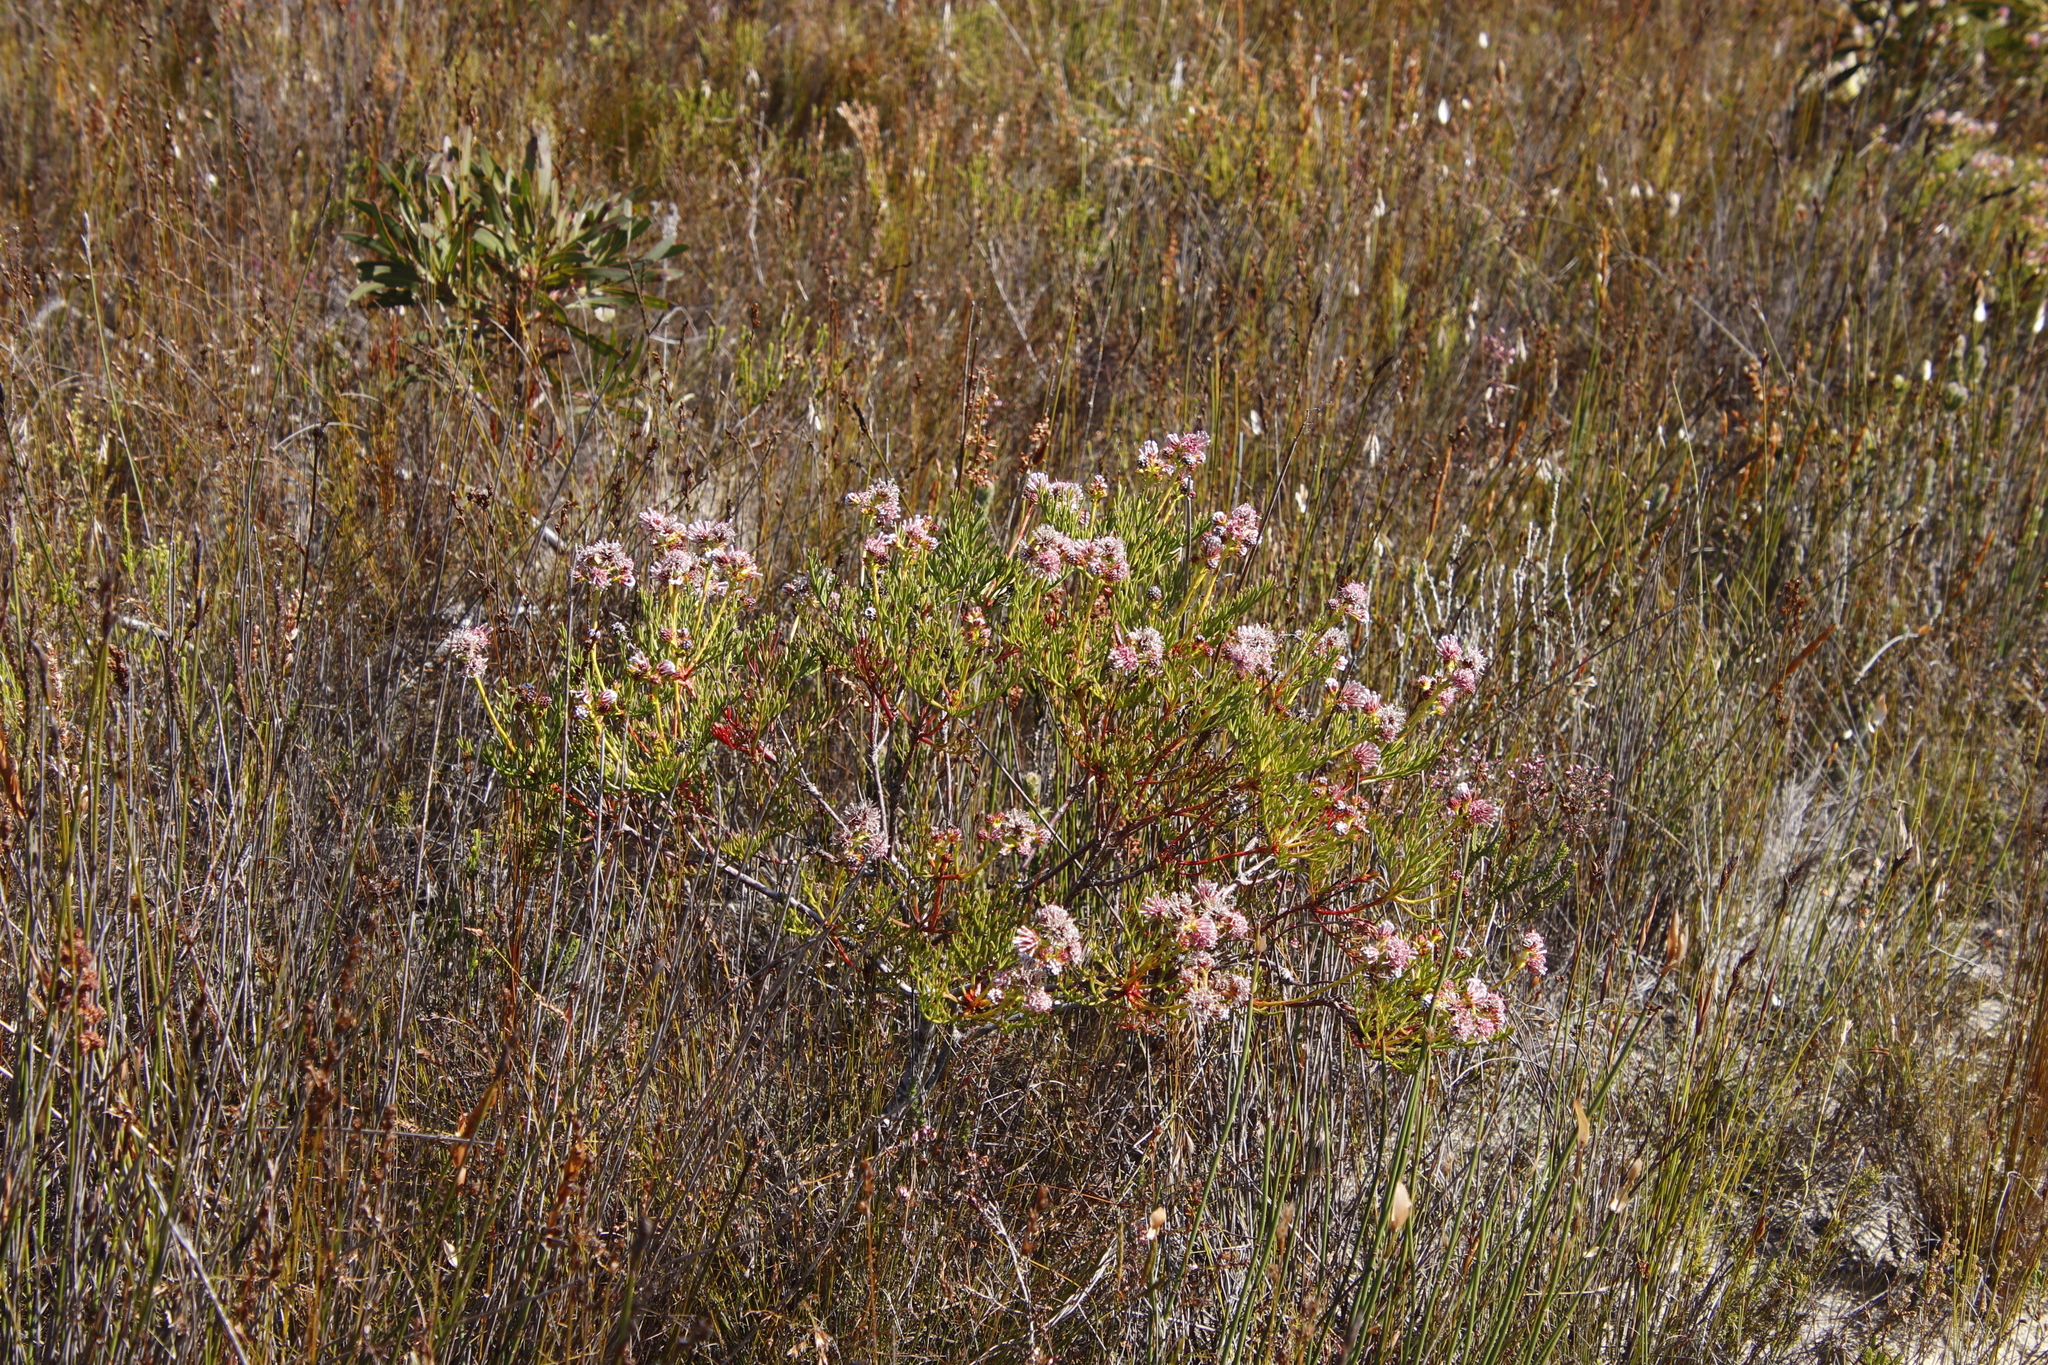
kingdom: Plantae
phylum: Tracheophyta
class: Magnoliopsida
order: Proteales
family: Proteaceae
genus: Serruria
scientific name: Serruria elongata
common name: Long-stalk spiderhead
